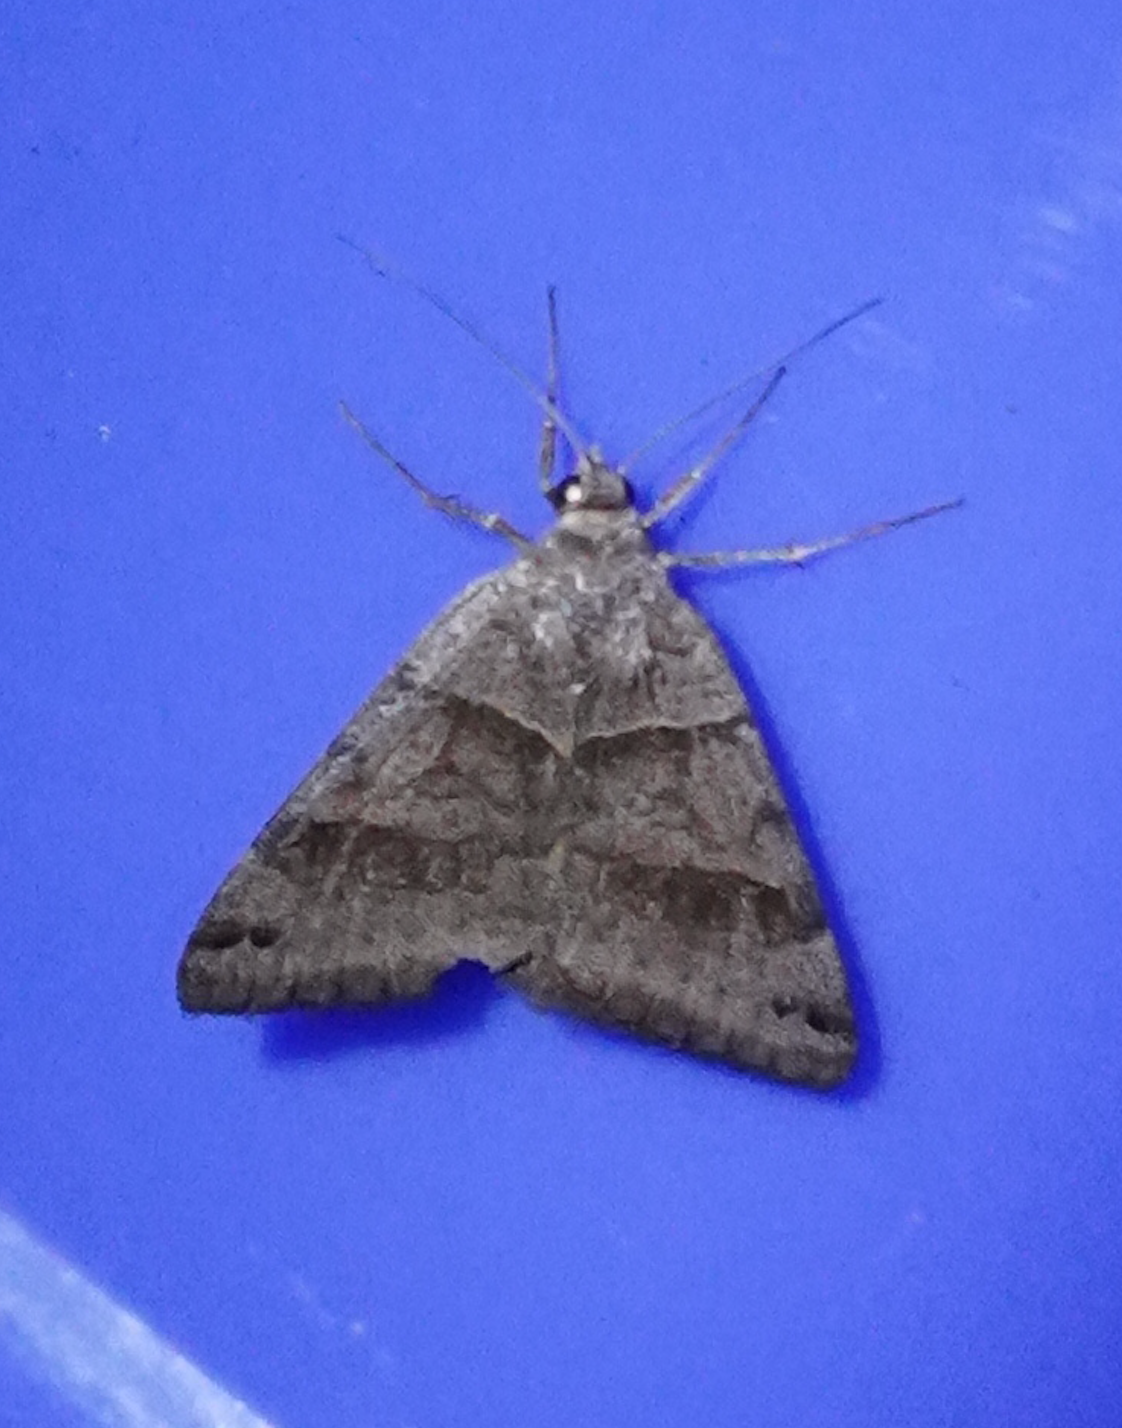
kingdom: Animalia
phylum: Arthropoda
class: Insecta
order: Lepidoptera
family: Erebidae
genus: Caenurgina
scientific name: Caenurgina crassiuscula
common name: Double-barred
